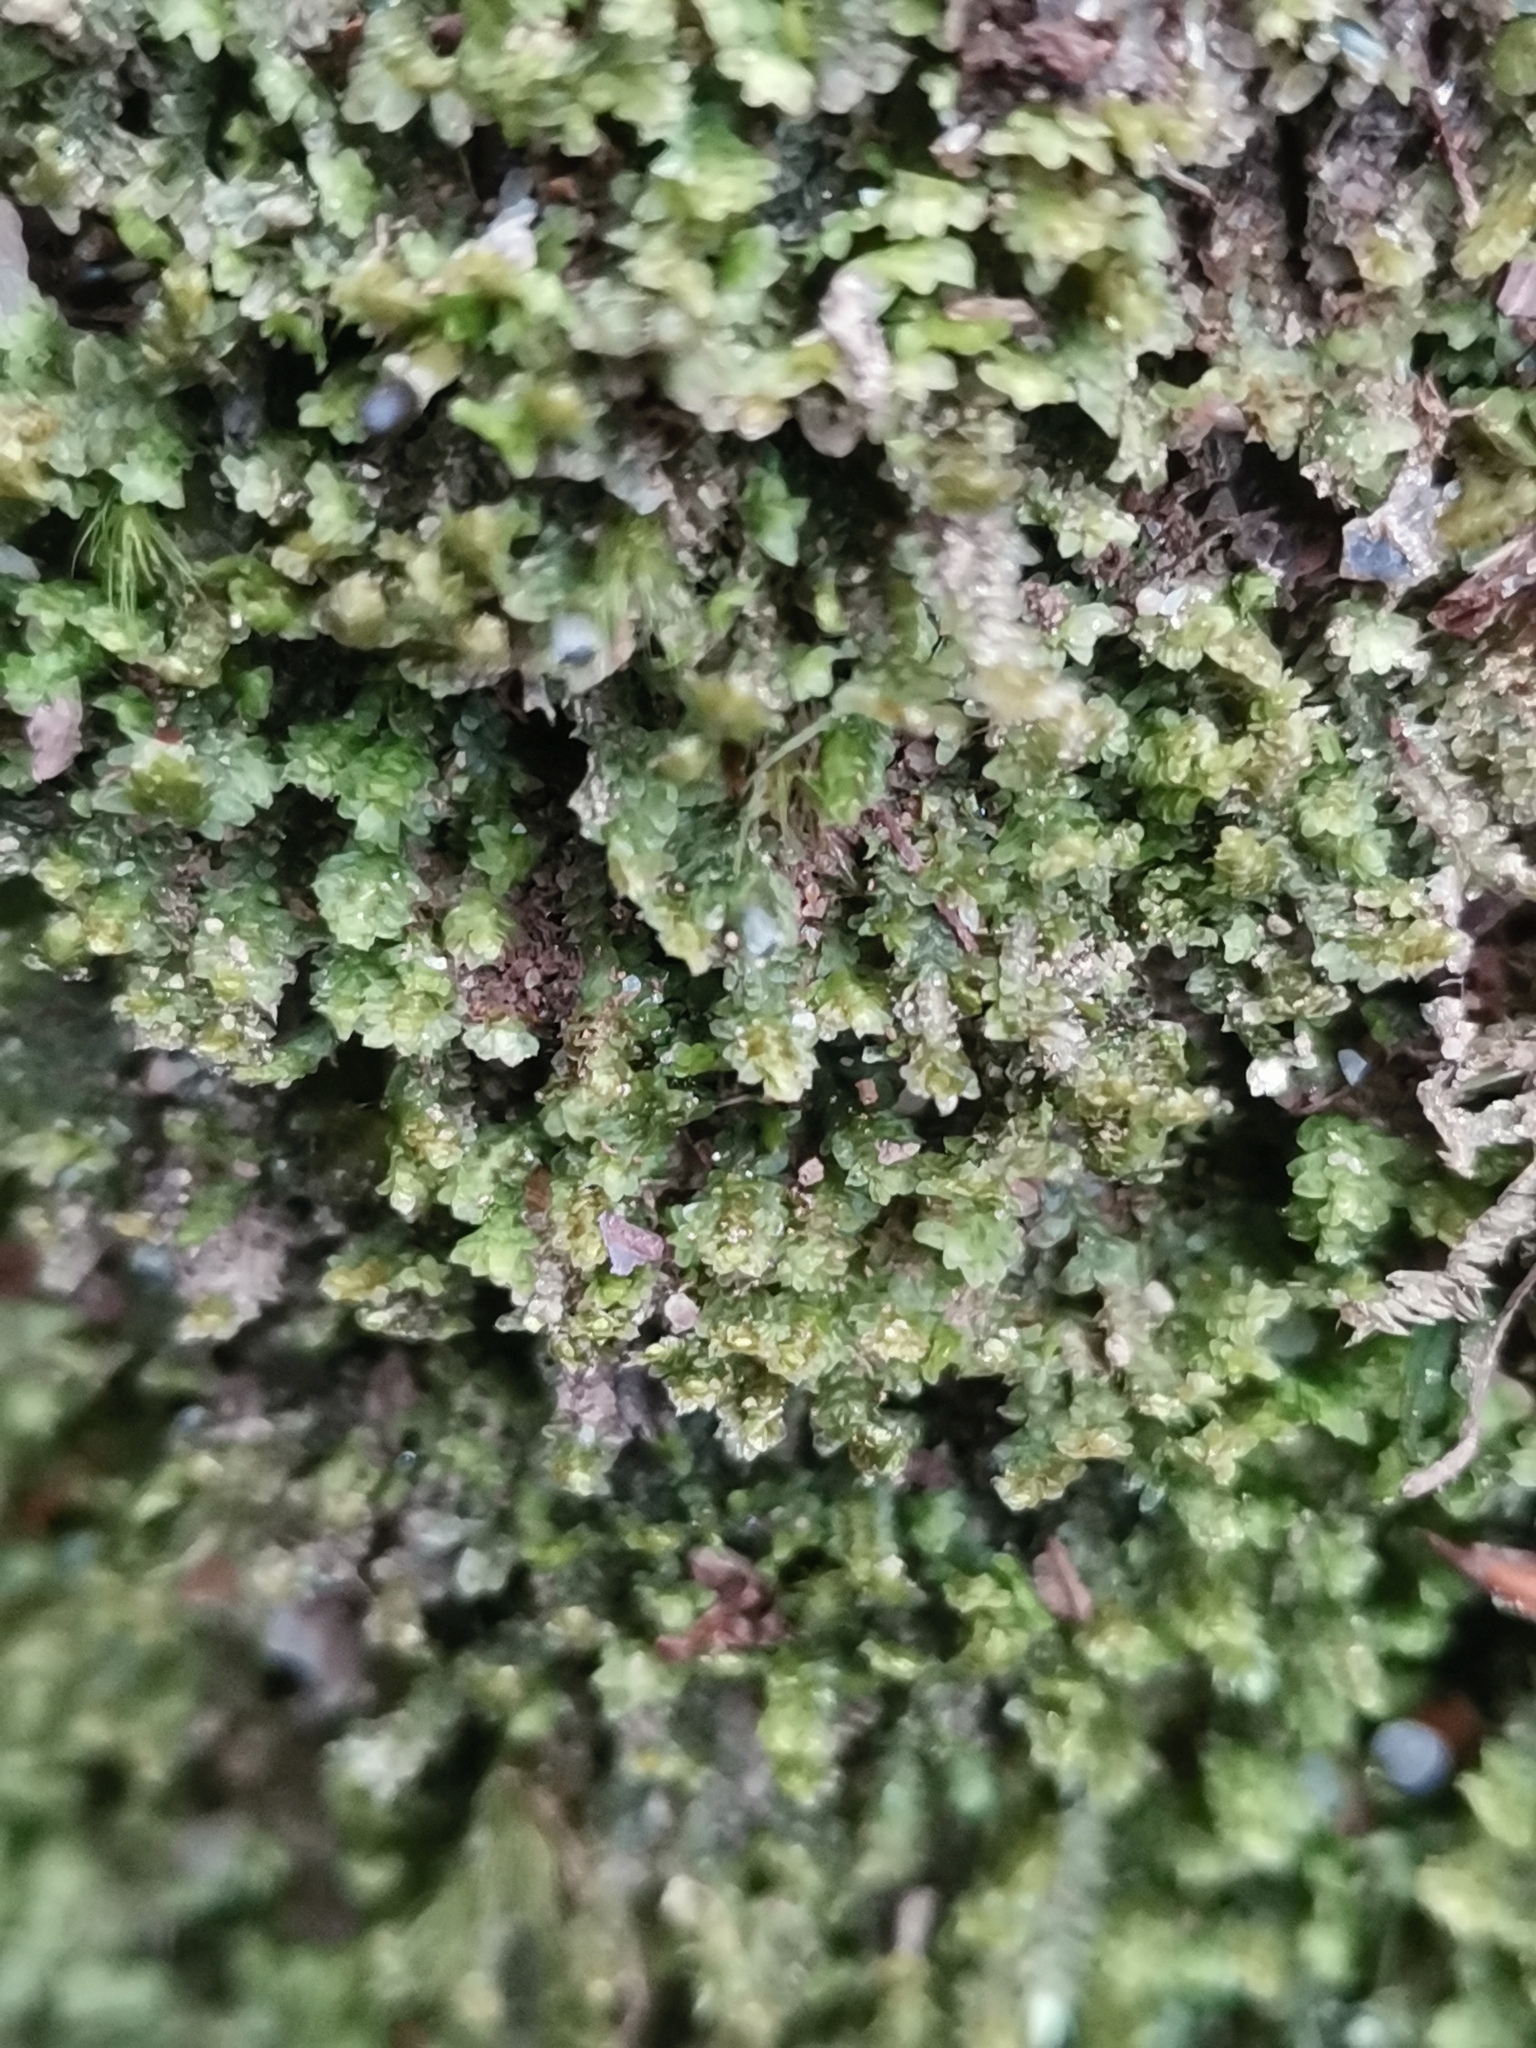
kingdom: Plantae
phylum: Marchantiophyta
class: Jungermanniopsida
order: Jungermanniales
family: Scapaniaceae
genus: Diplophyllum
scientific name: Diplophyllum albicans
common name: White earwort
